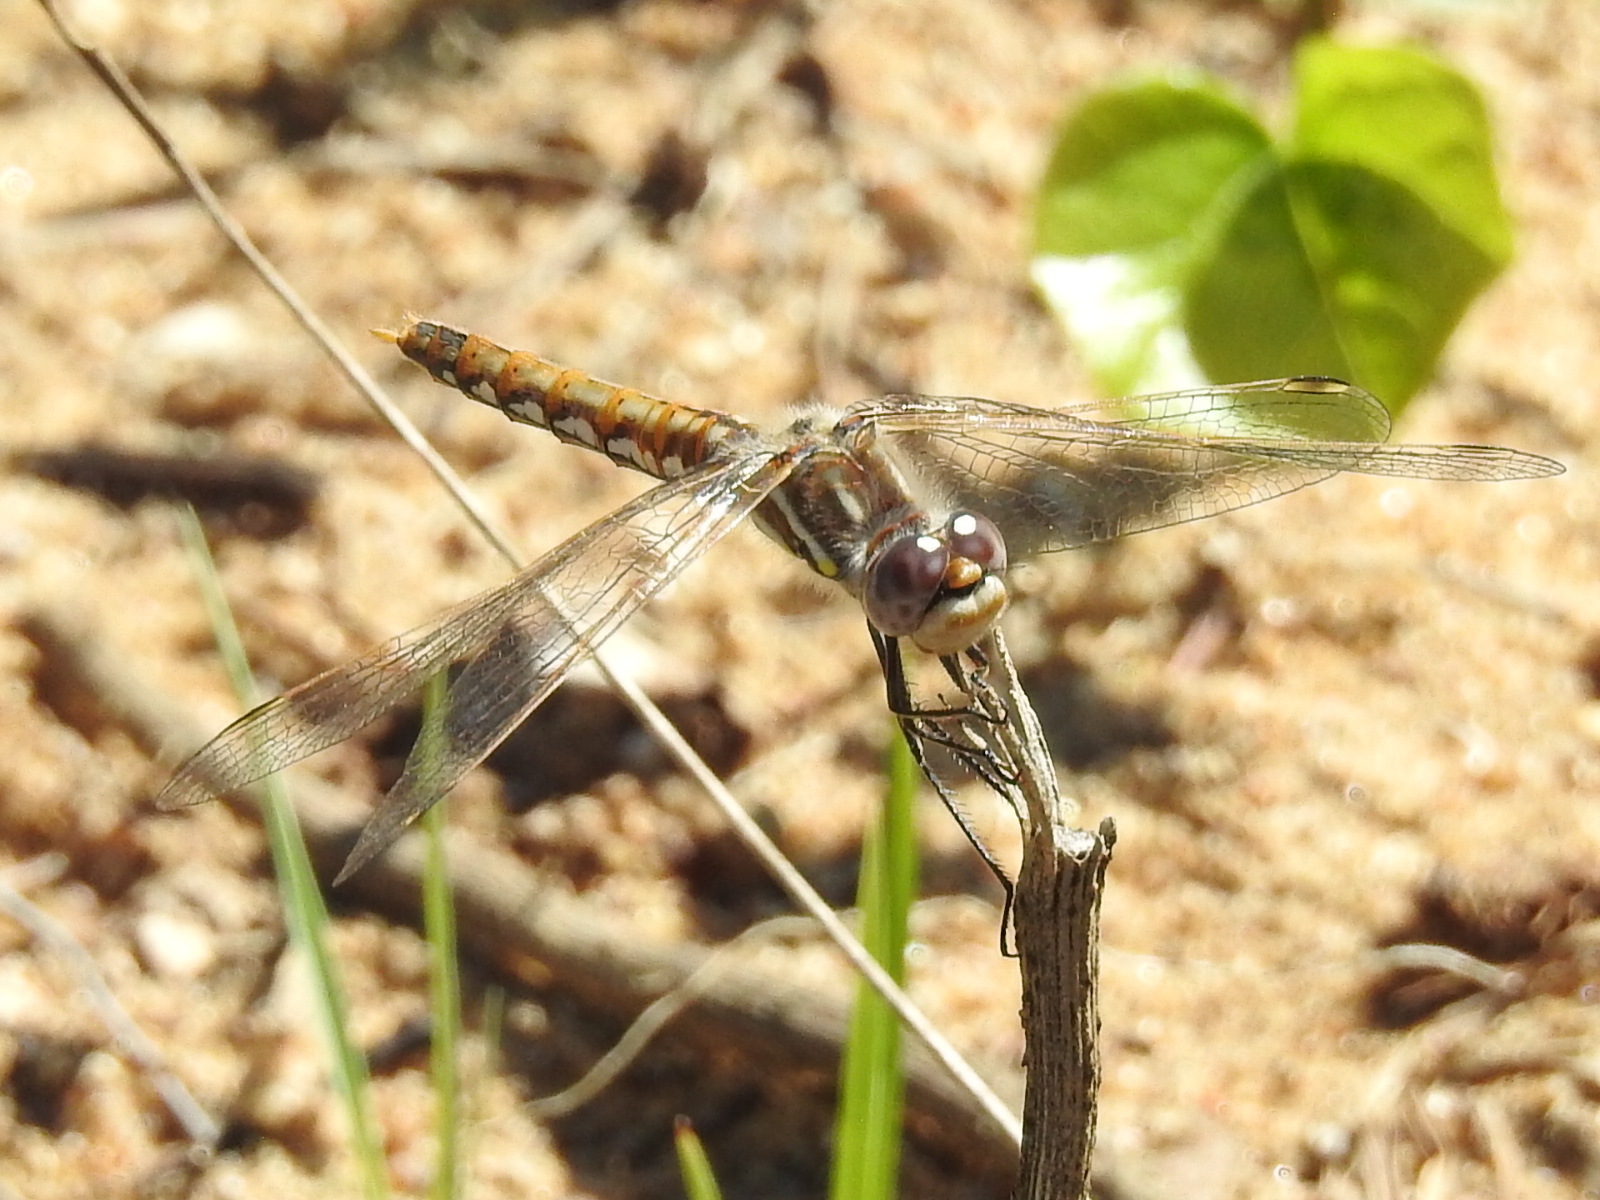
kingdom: Animalia
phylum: Arthropoda
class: Insecta
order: Odonata
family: Libellulidae
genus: Sympetrum
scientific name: Sympetrum corruptum
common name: Variegated meadowhawk
